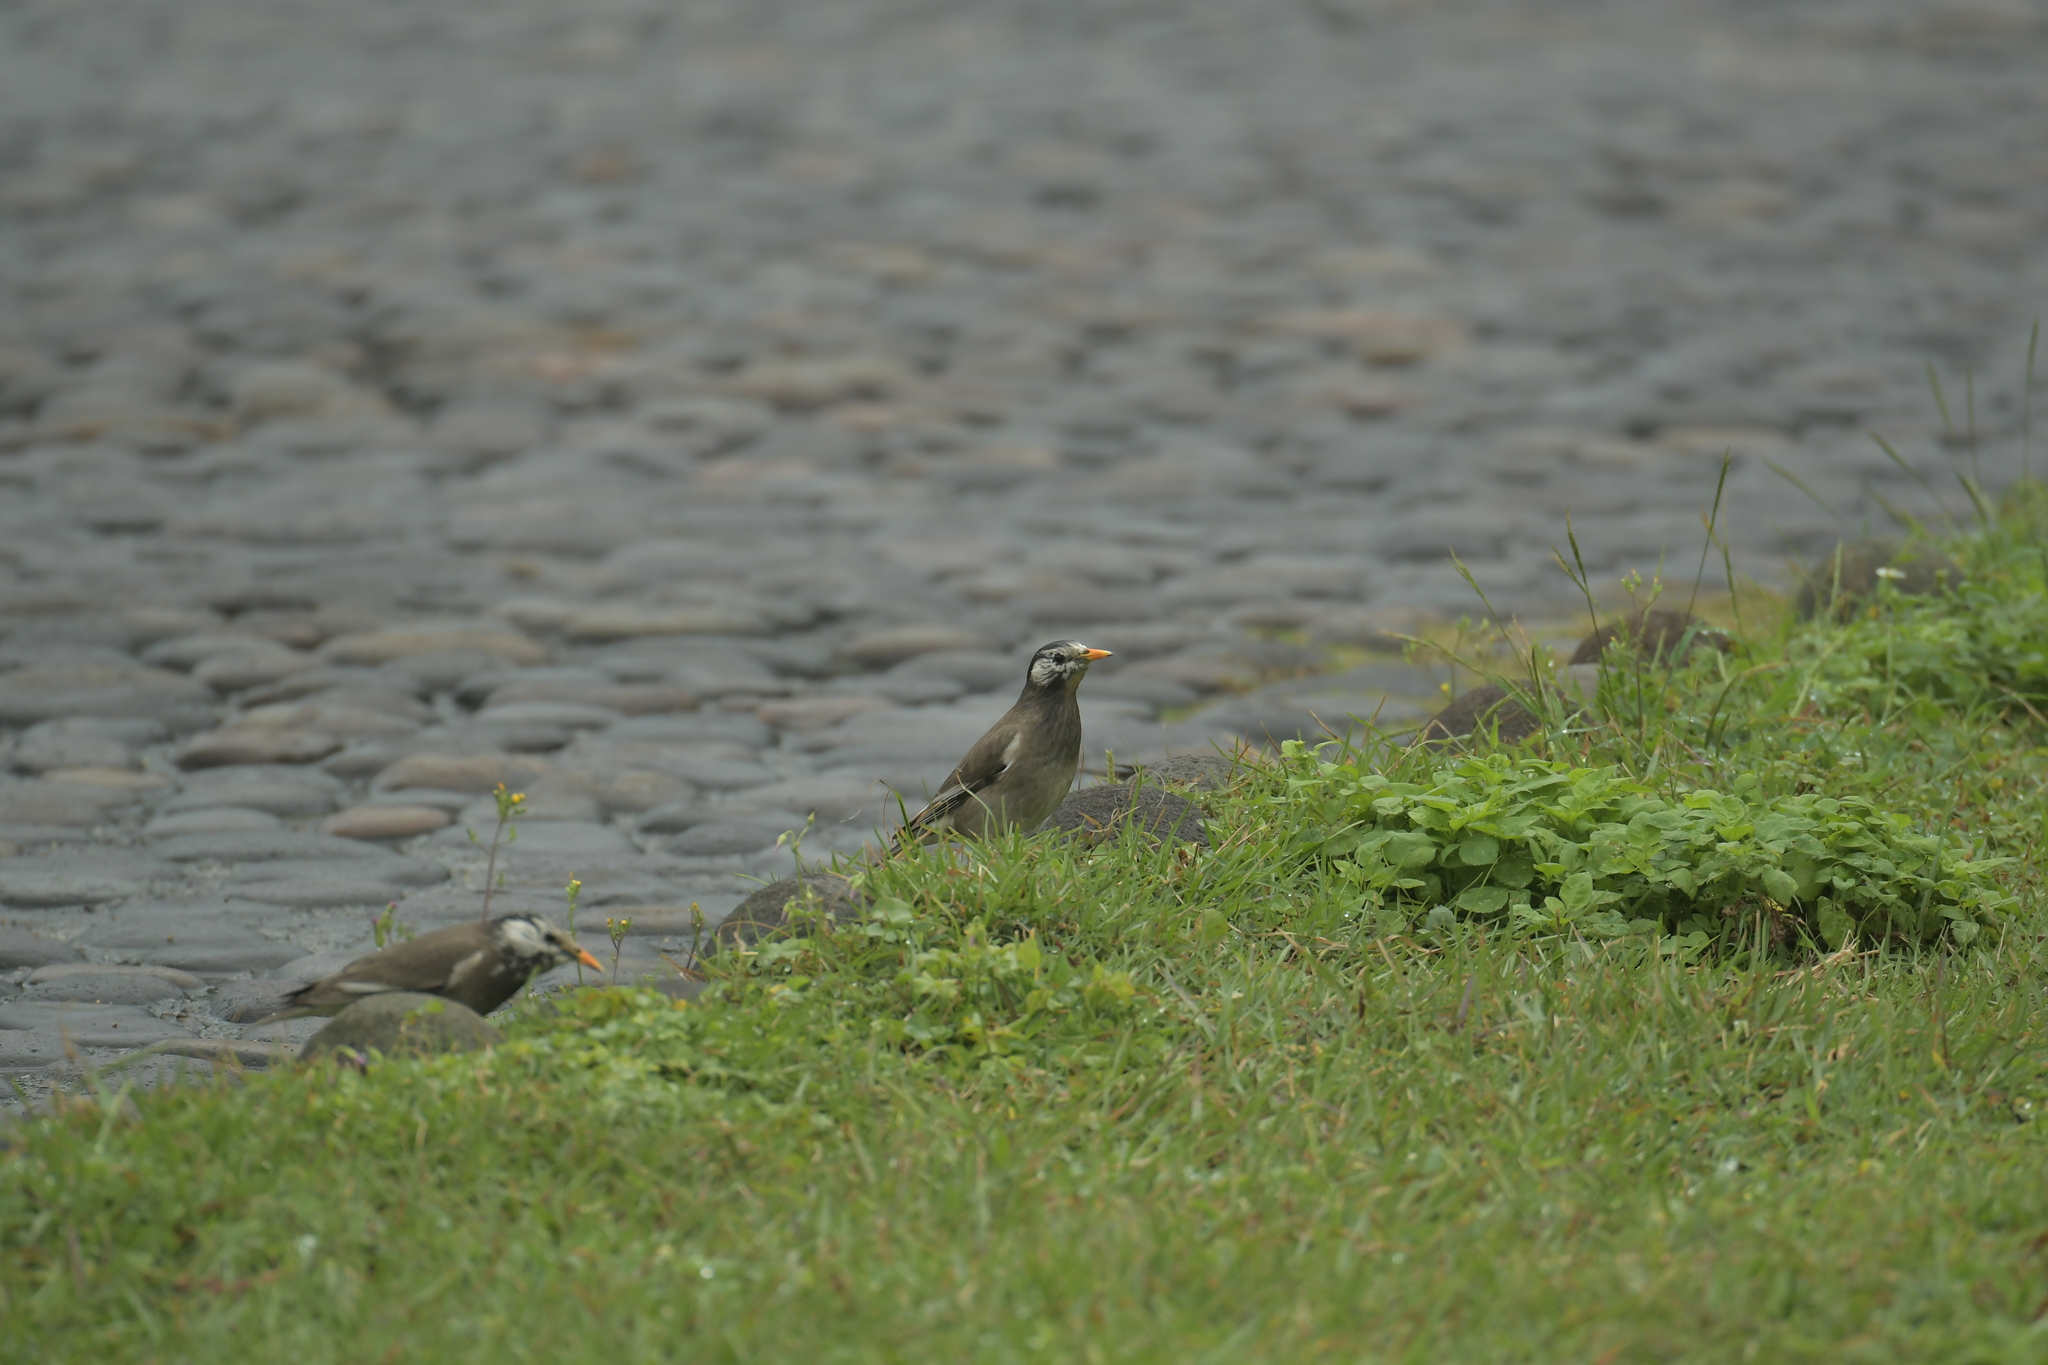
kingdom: Animalia
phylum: Chordata
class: Aves
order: Passeriformes
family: Sturnidae
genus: Spodiopsar
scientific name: Spodiopsar cineraceus
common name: White-cheeked starling
